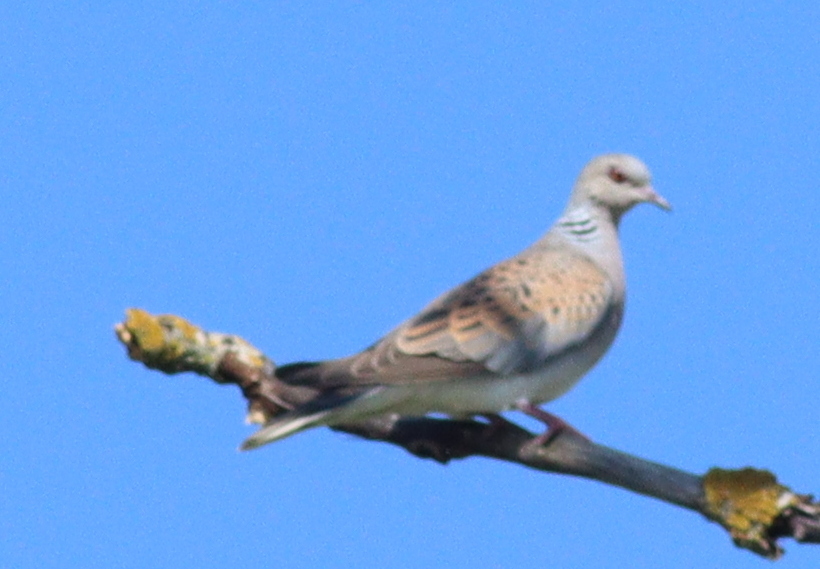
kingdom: Animalia
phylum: Chordata
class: Aves
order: Columbiformes
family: Columbidae
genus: Streptopelia
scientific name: Streptopelia turtur
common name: European turtle dove
